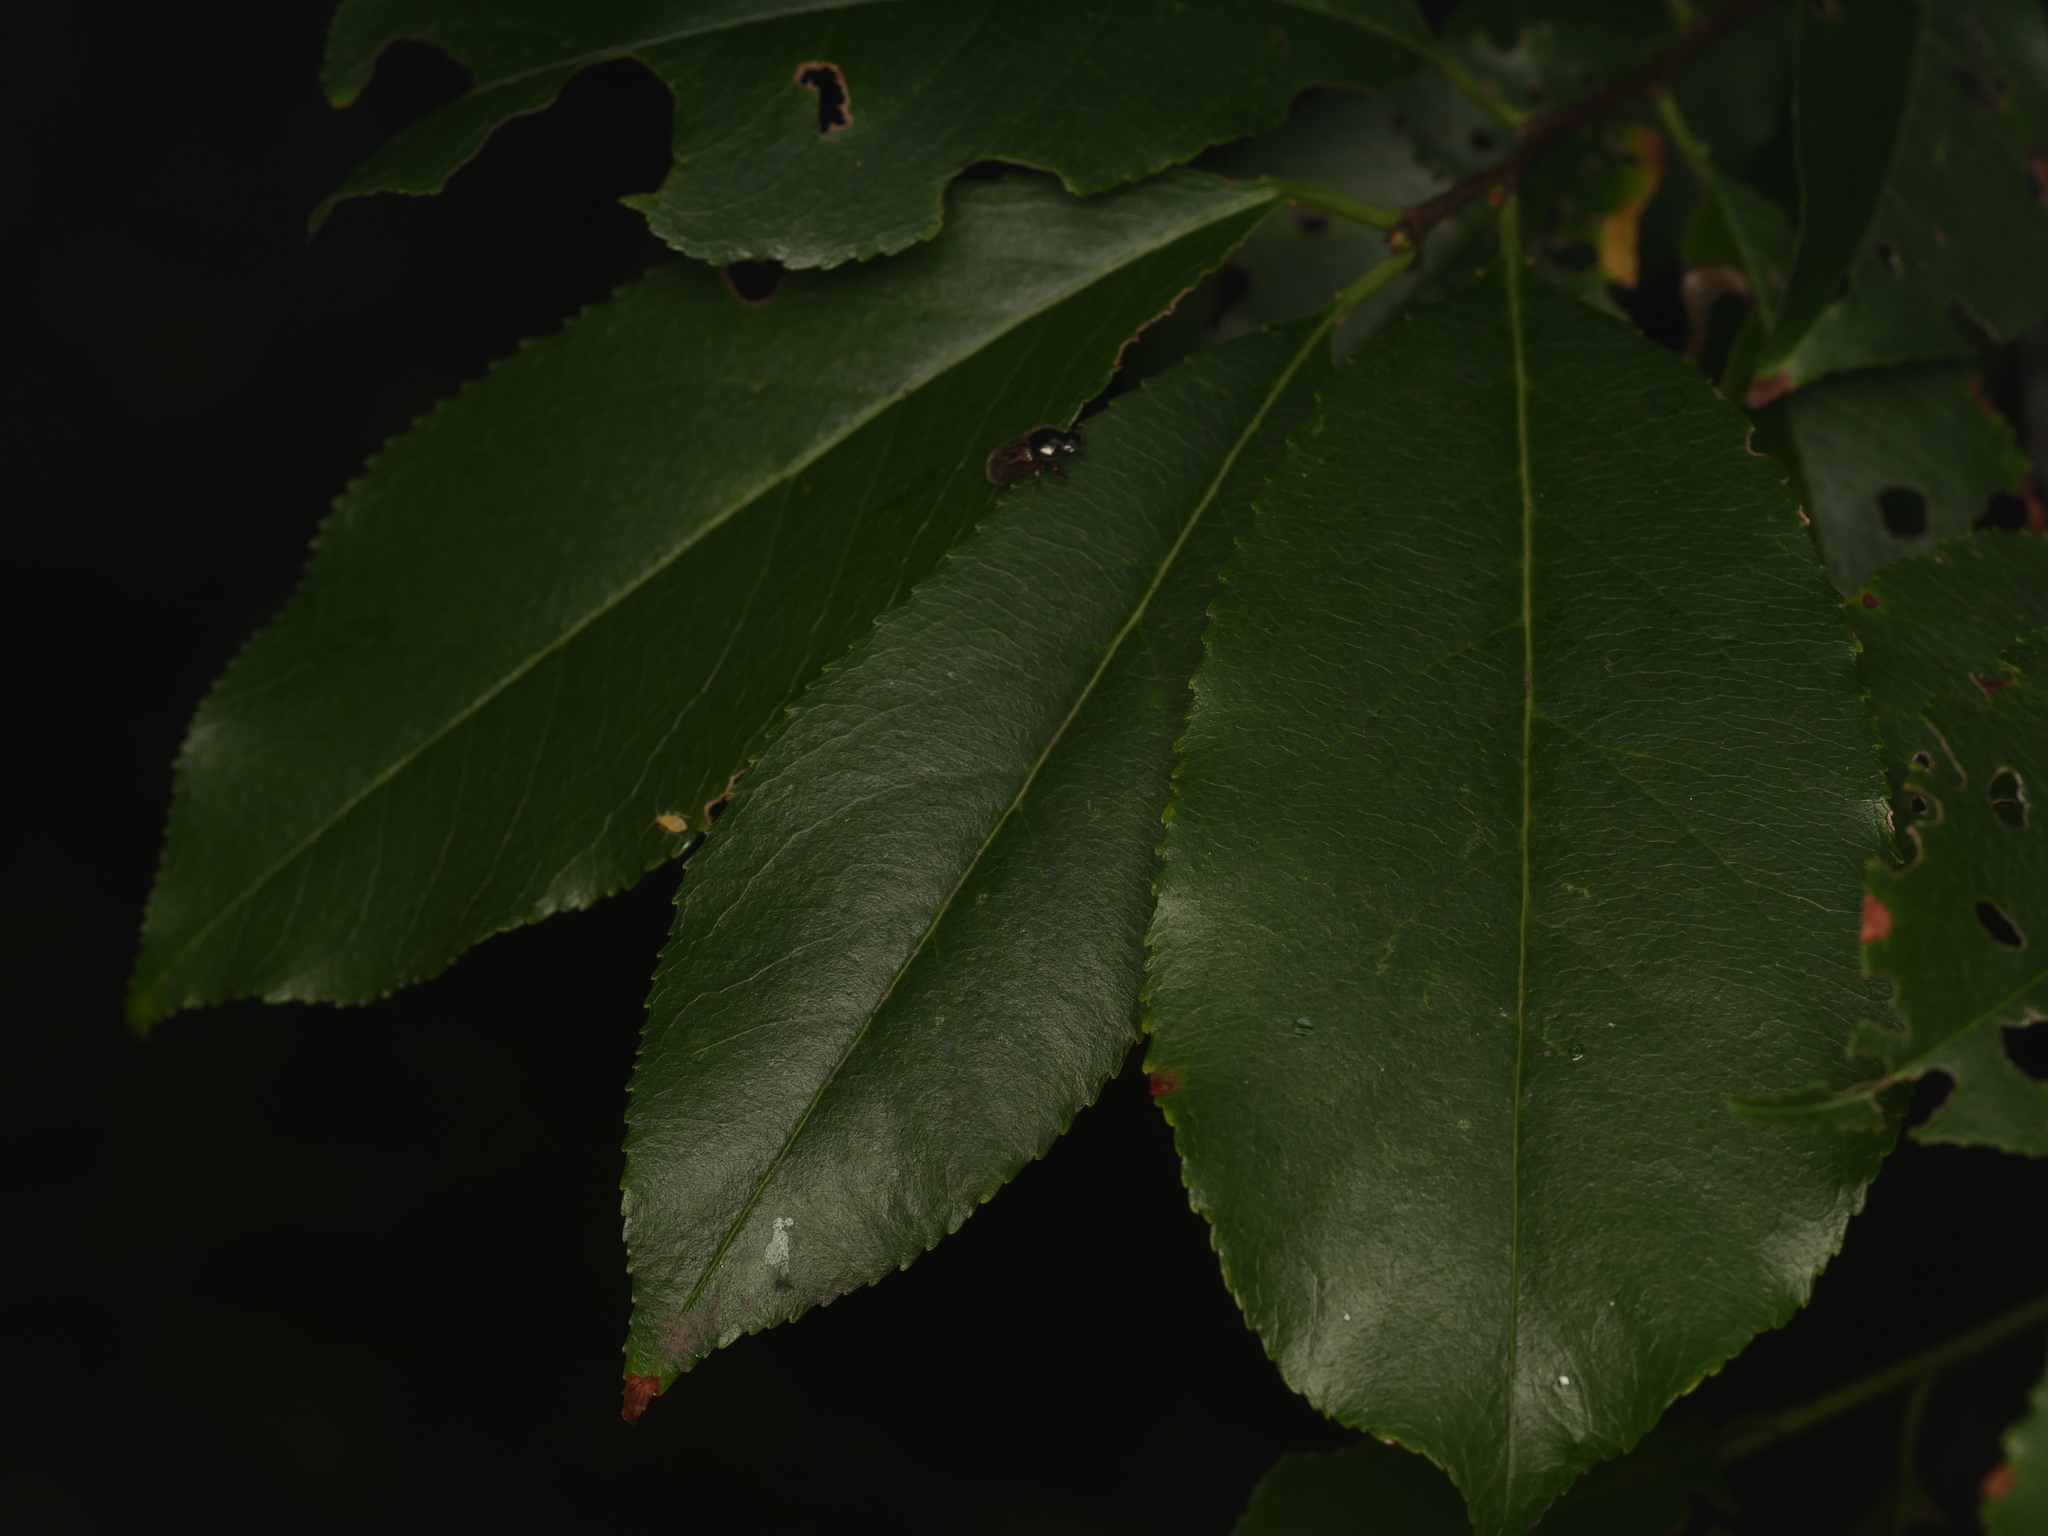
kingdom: Plantae
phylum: Tracheophyta
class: Magnoliopsida
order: Rosales
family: Rosaceae
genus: Prunus
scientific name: Prunus serotina
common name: Black cherry
